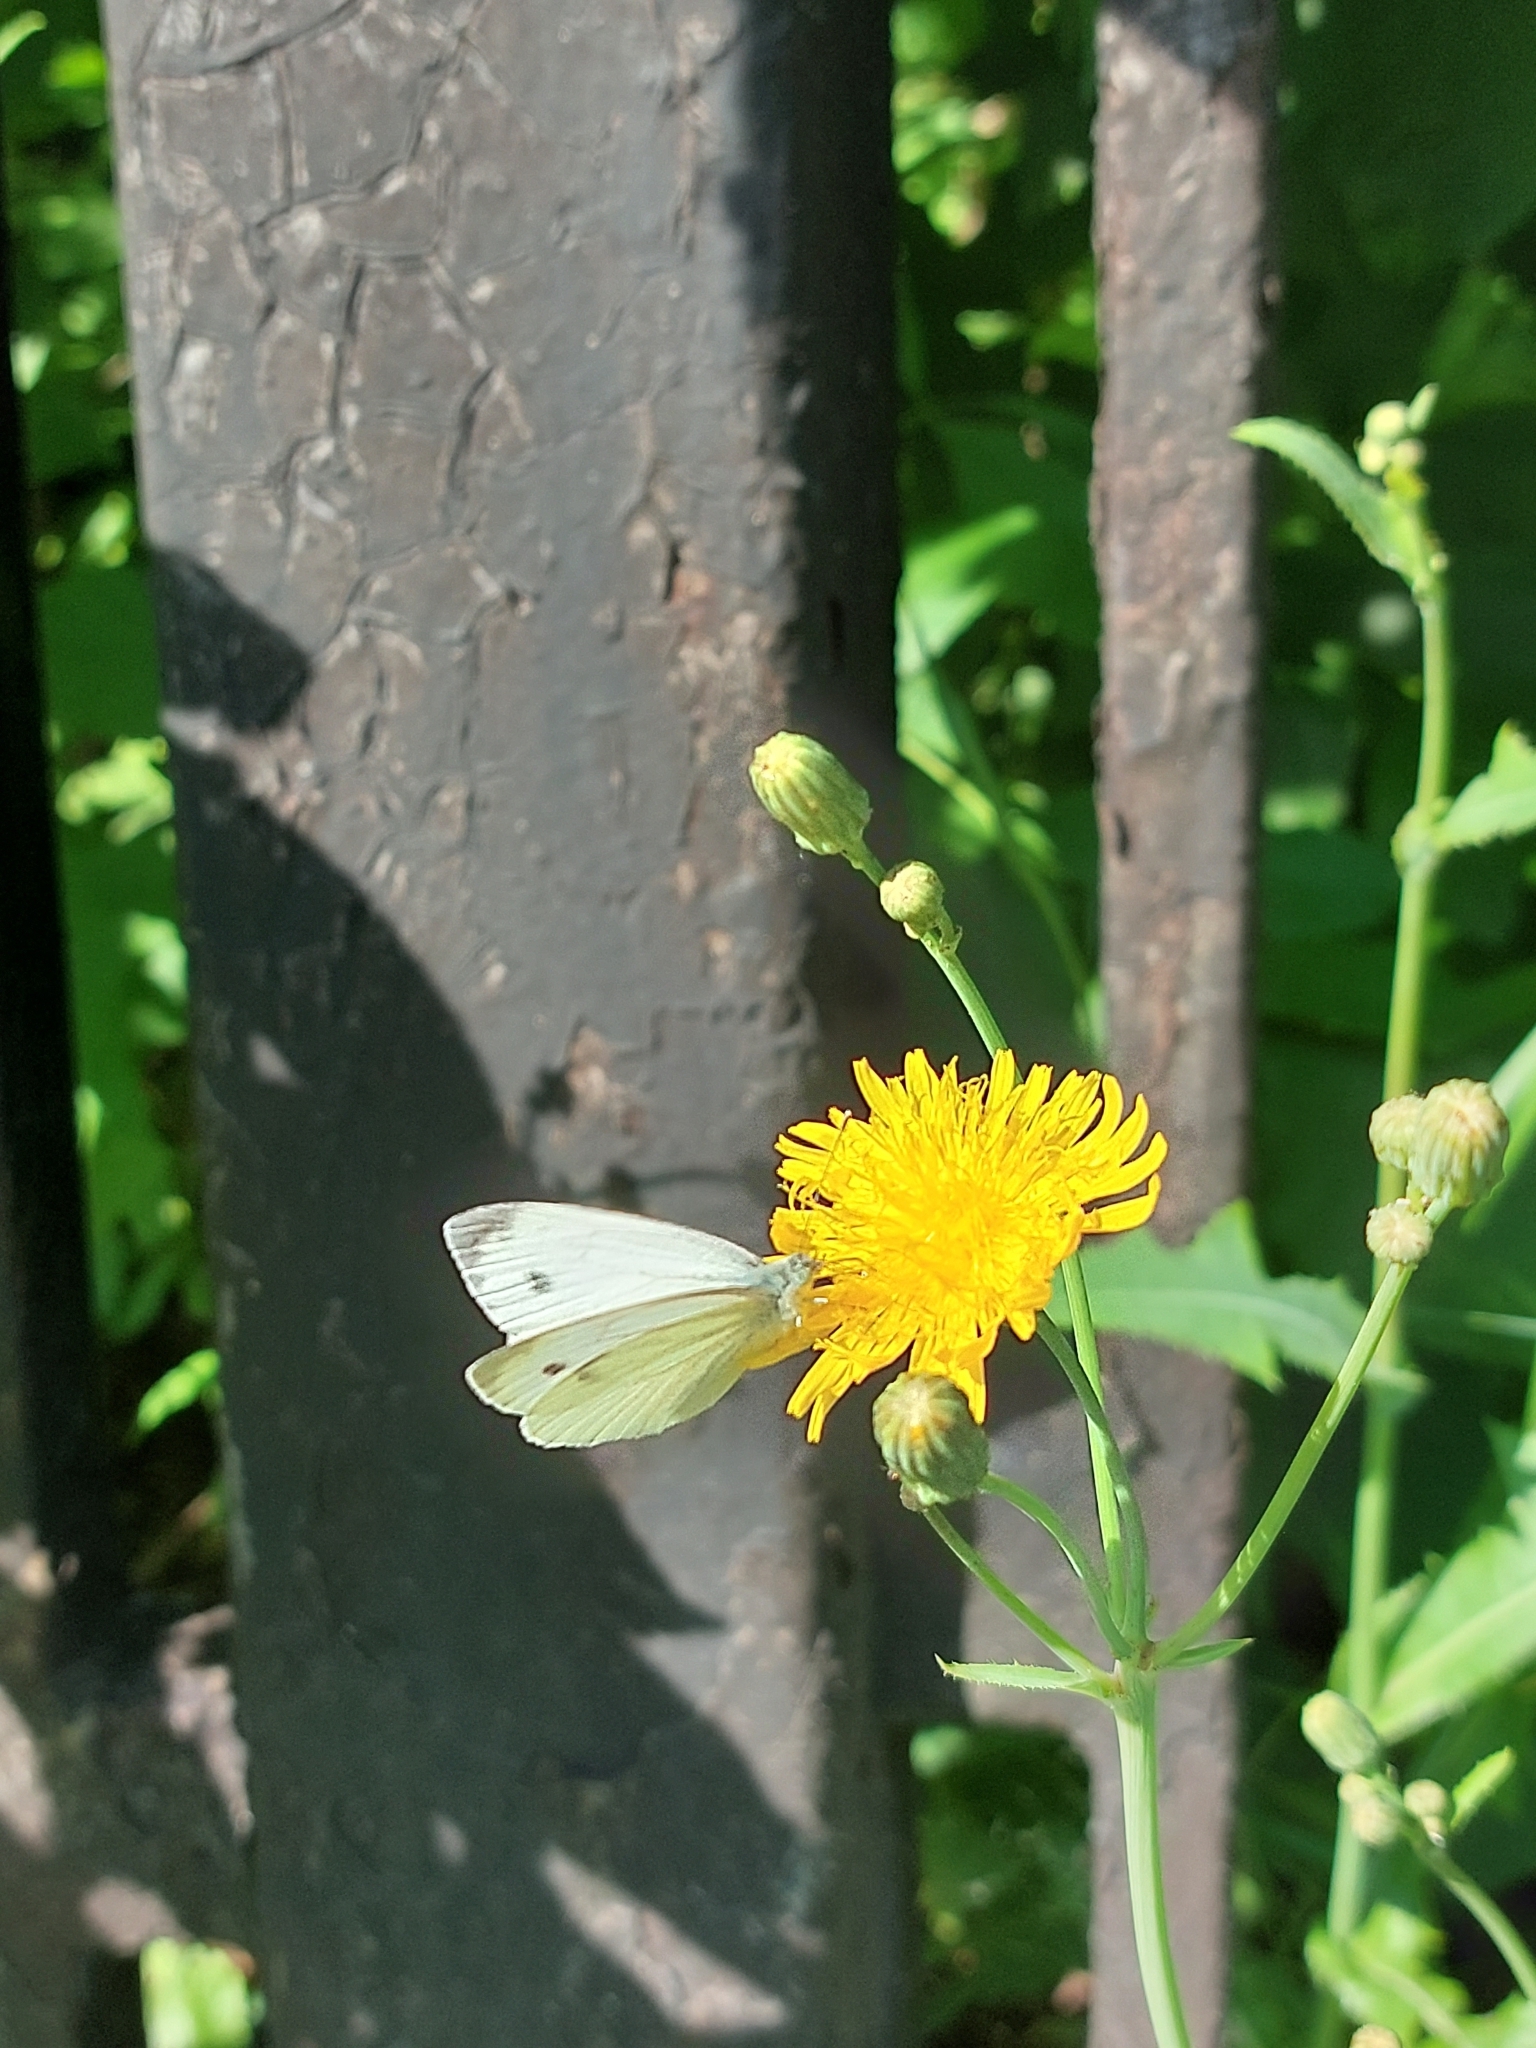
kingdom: Animalia
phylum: Arthropoda
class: Insecta
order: Lepidoptera
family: Pieridae
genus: Pieris
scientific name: Pieris napi
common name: Green-veined white
